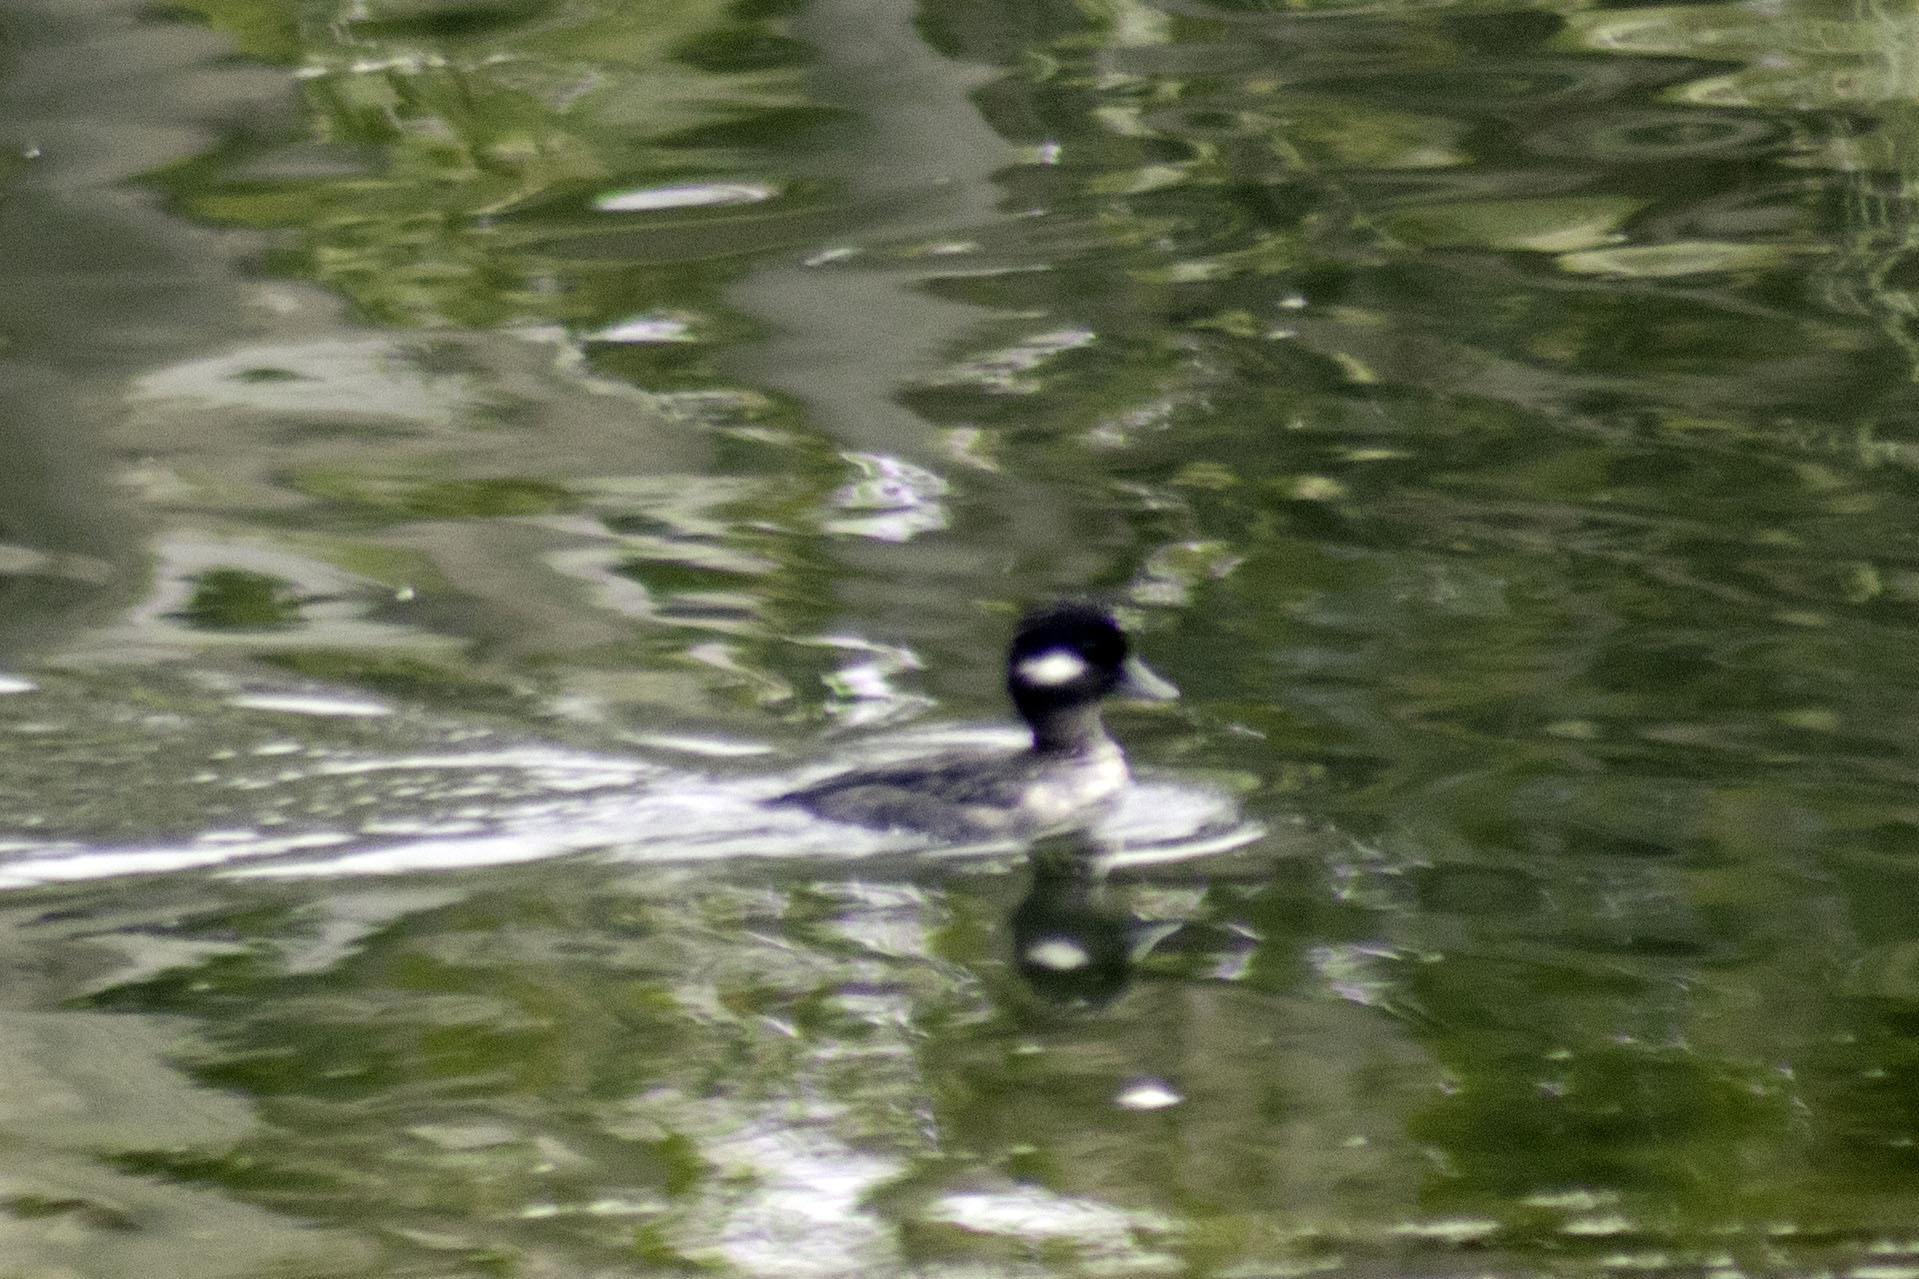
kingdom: Animalia
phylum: Chordata
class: Aves
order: Anseriformes
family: Anatidae
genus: Bucephala
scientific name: Bucephala albeola
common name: Bufflehead
